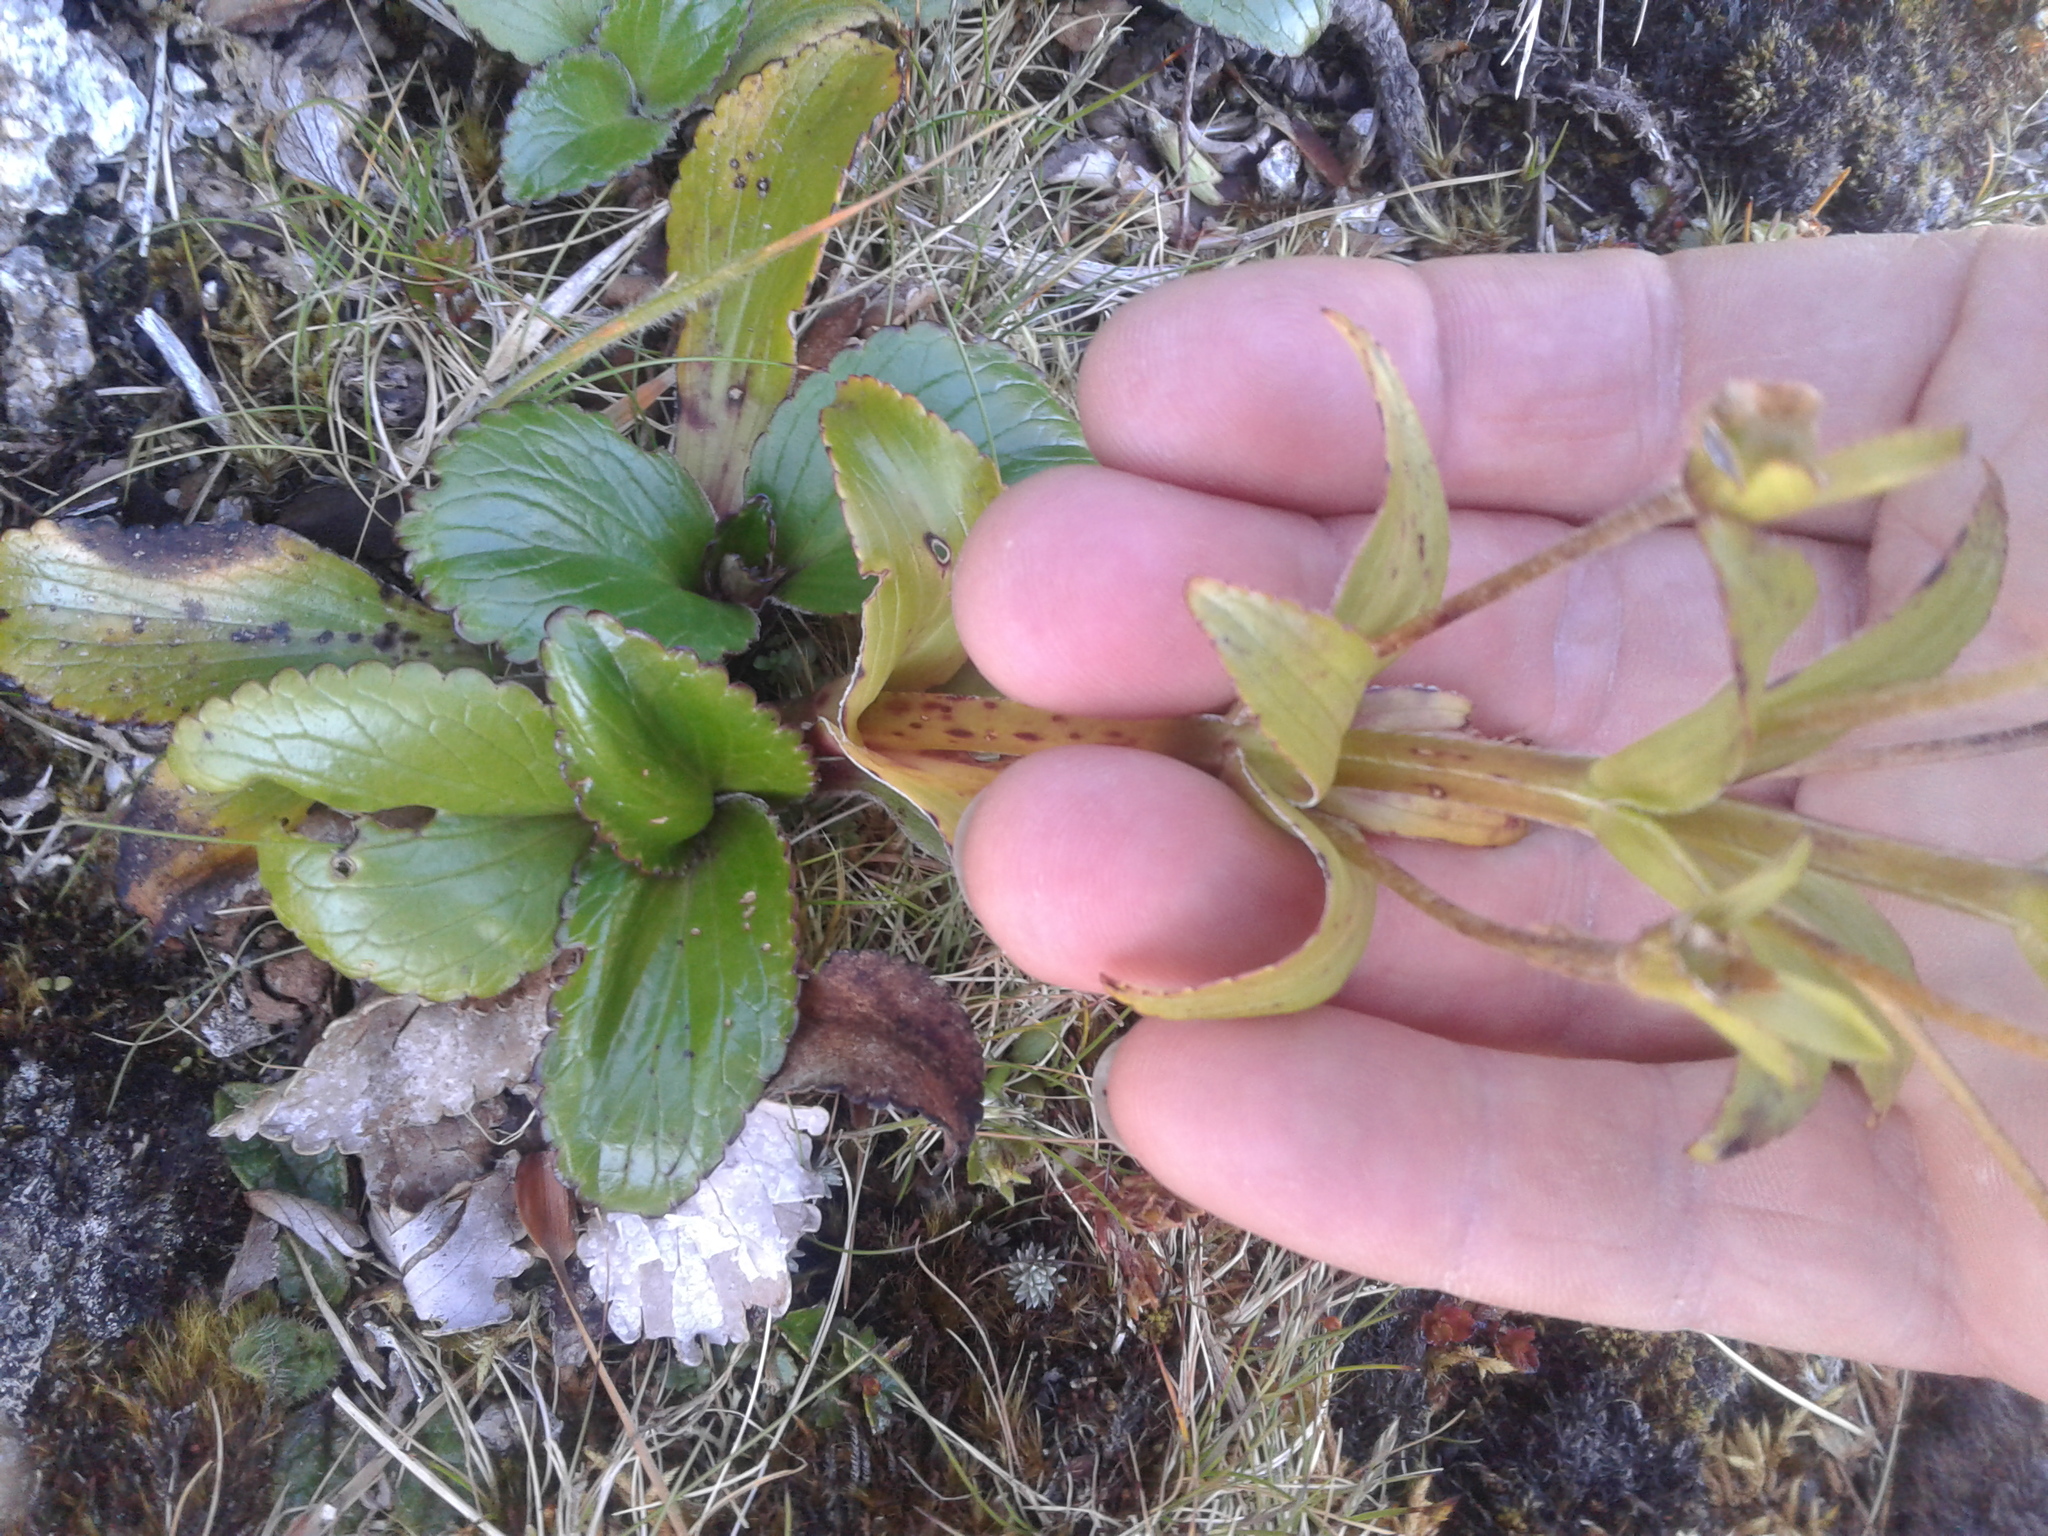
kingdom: Plantae
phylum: Tracheophyta
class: Magnoliopsida
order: Lamiales
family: Plantaginaceae
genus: Ourisia
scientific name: Ourisia calycina
